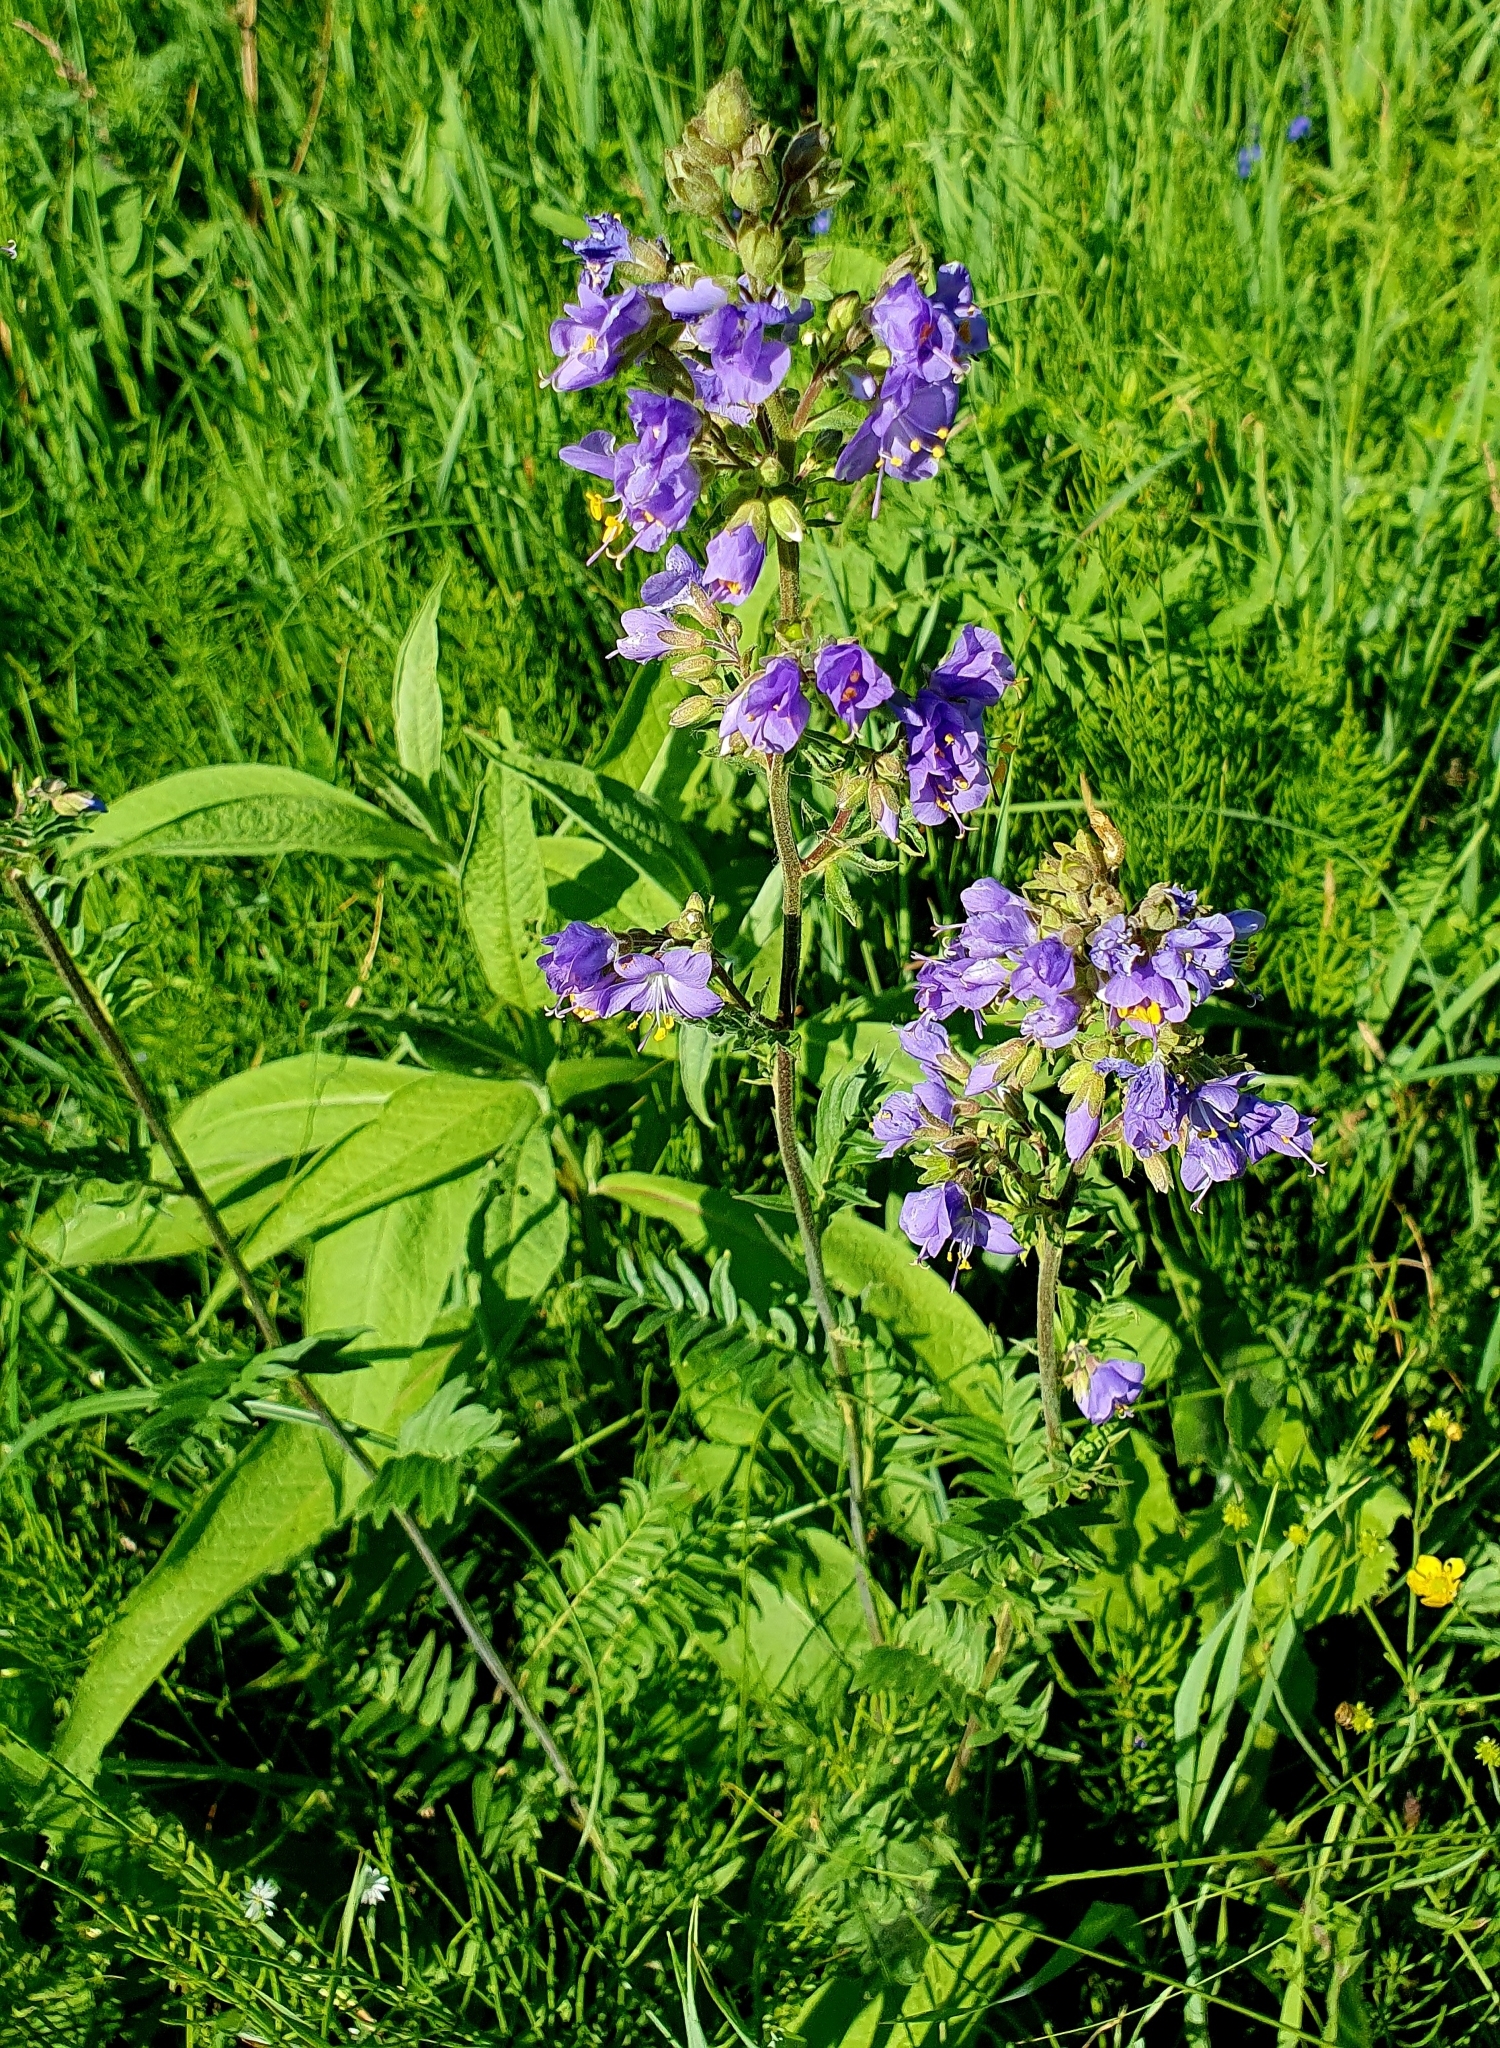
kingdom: Plantae
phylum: Tracheophyta
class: Magnoliopsida
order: Ericales
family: Polemoniaceae
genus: Polemonium
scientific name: Polemonium caeruleum
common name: Jacob's-ladder
